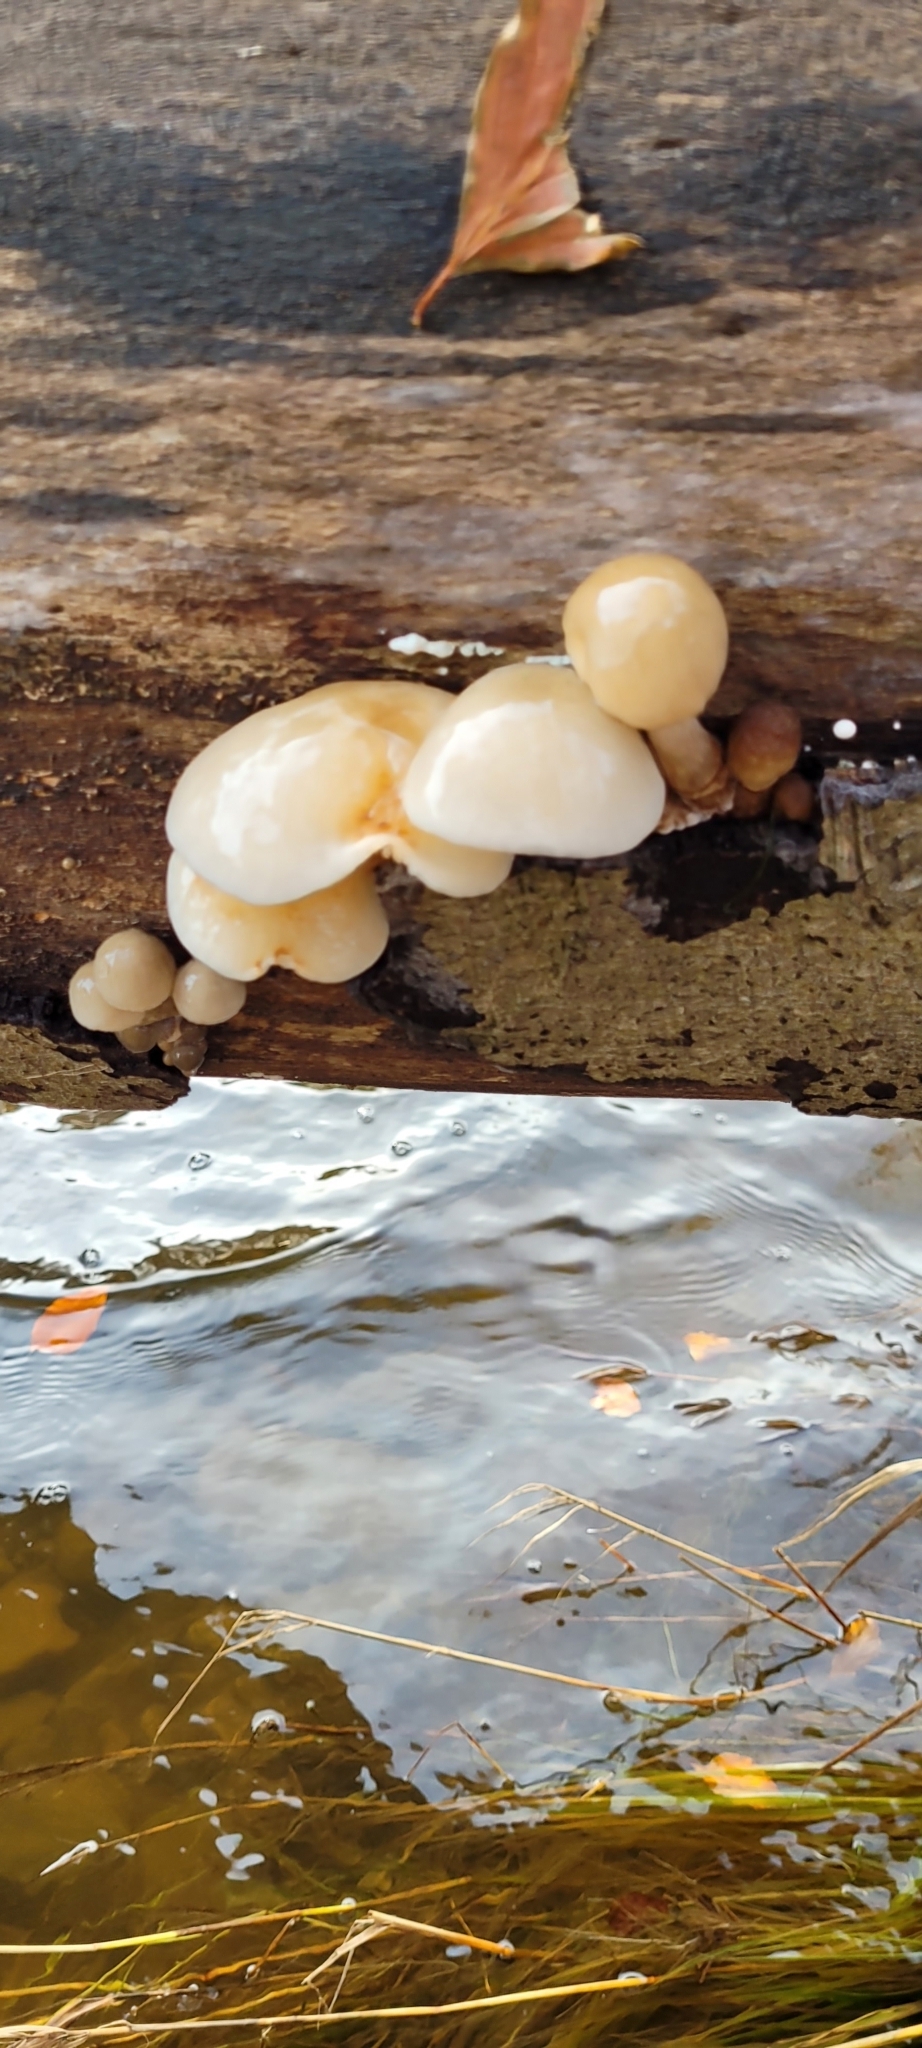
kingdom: Fungi
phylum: Basidiomycota
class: Agaricomycetes
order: Agaricales
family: Physalacriaceae
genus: Mucidula
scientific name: Mucidula mucida
